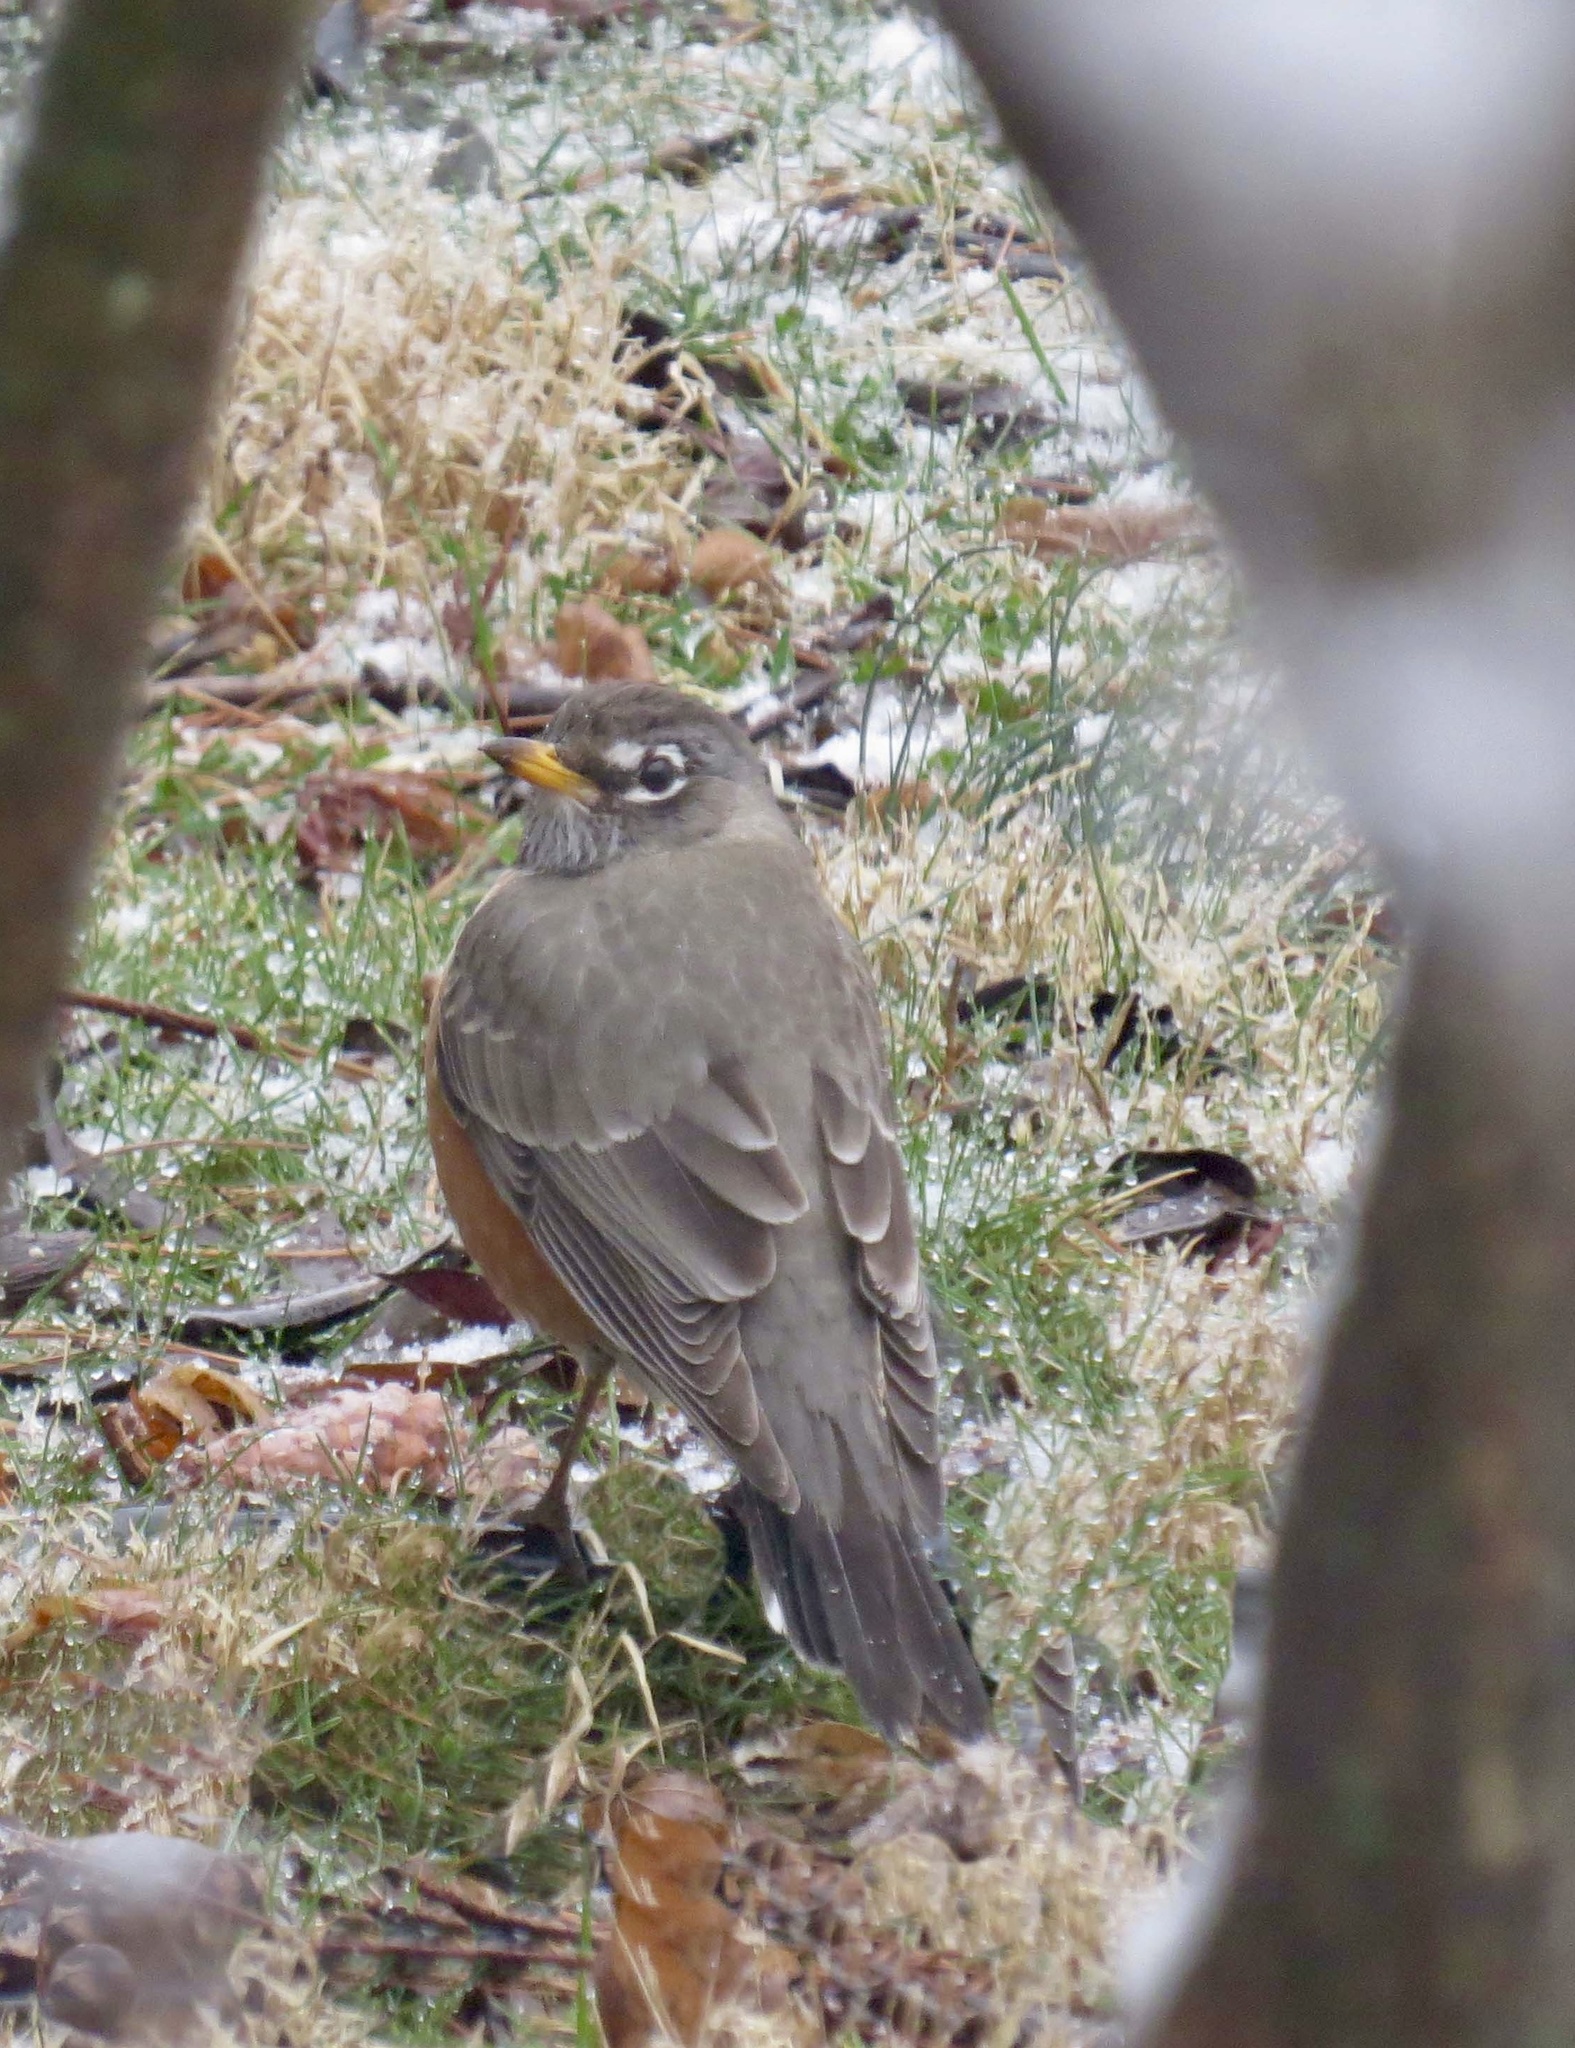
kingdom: Animalia
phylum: Chordata
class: Aves
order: Passeriformes
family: Turdidae
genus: Turdus
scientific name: Turdus migratorius
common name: American robin
